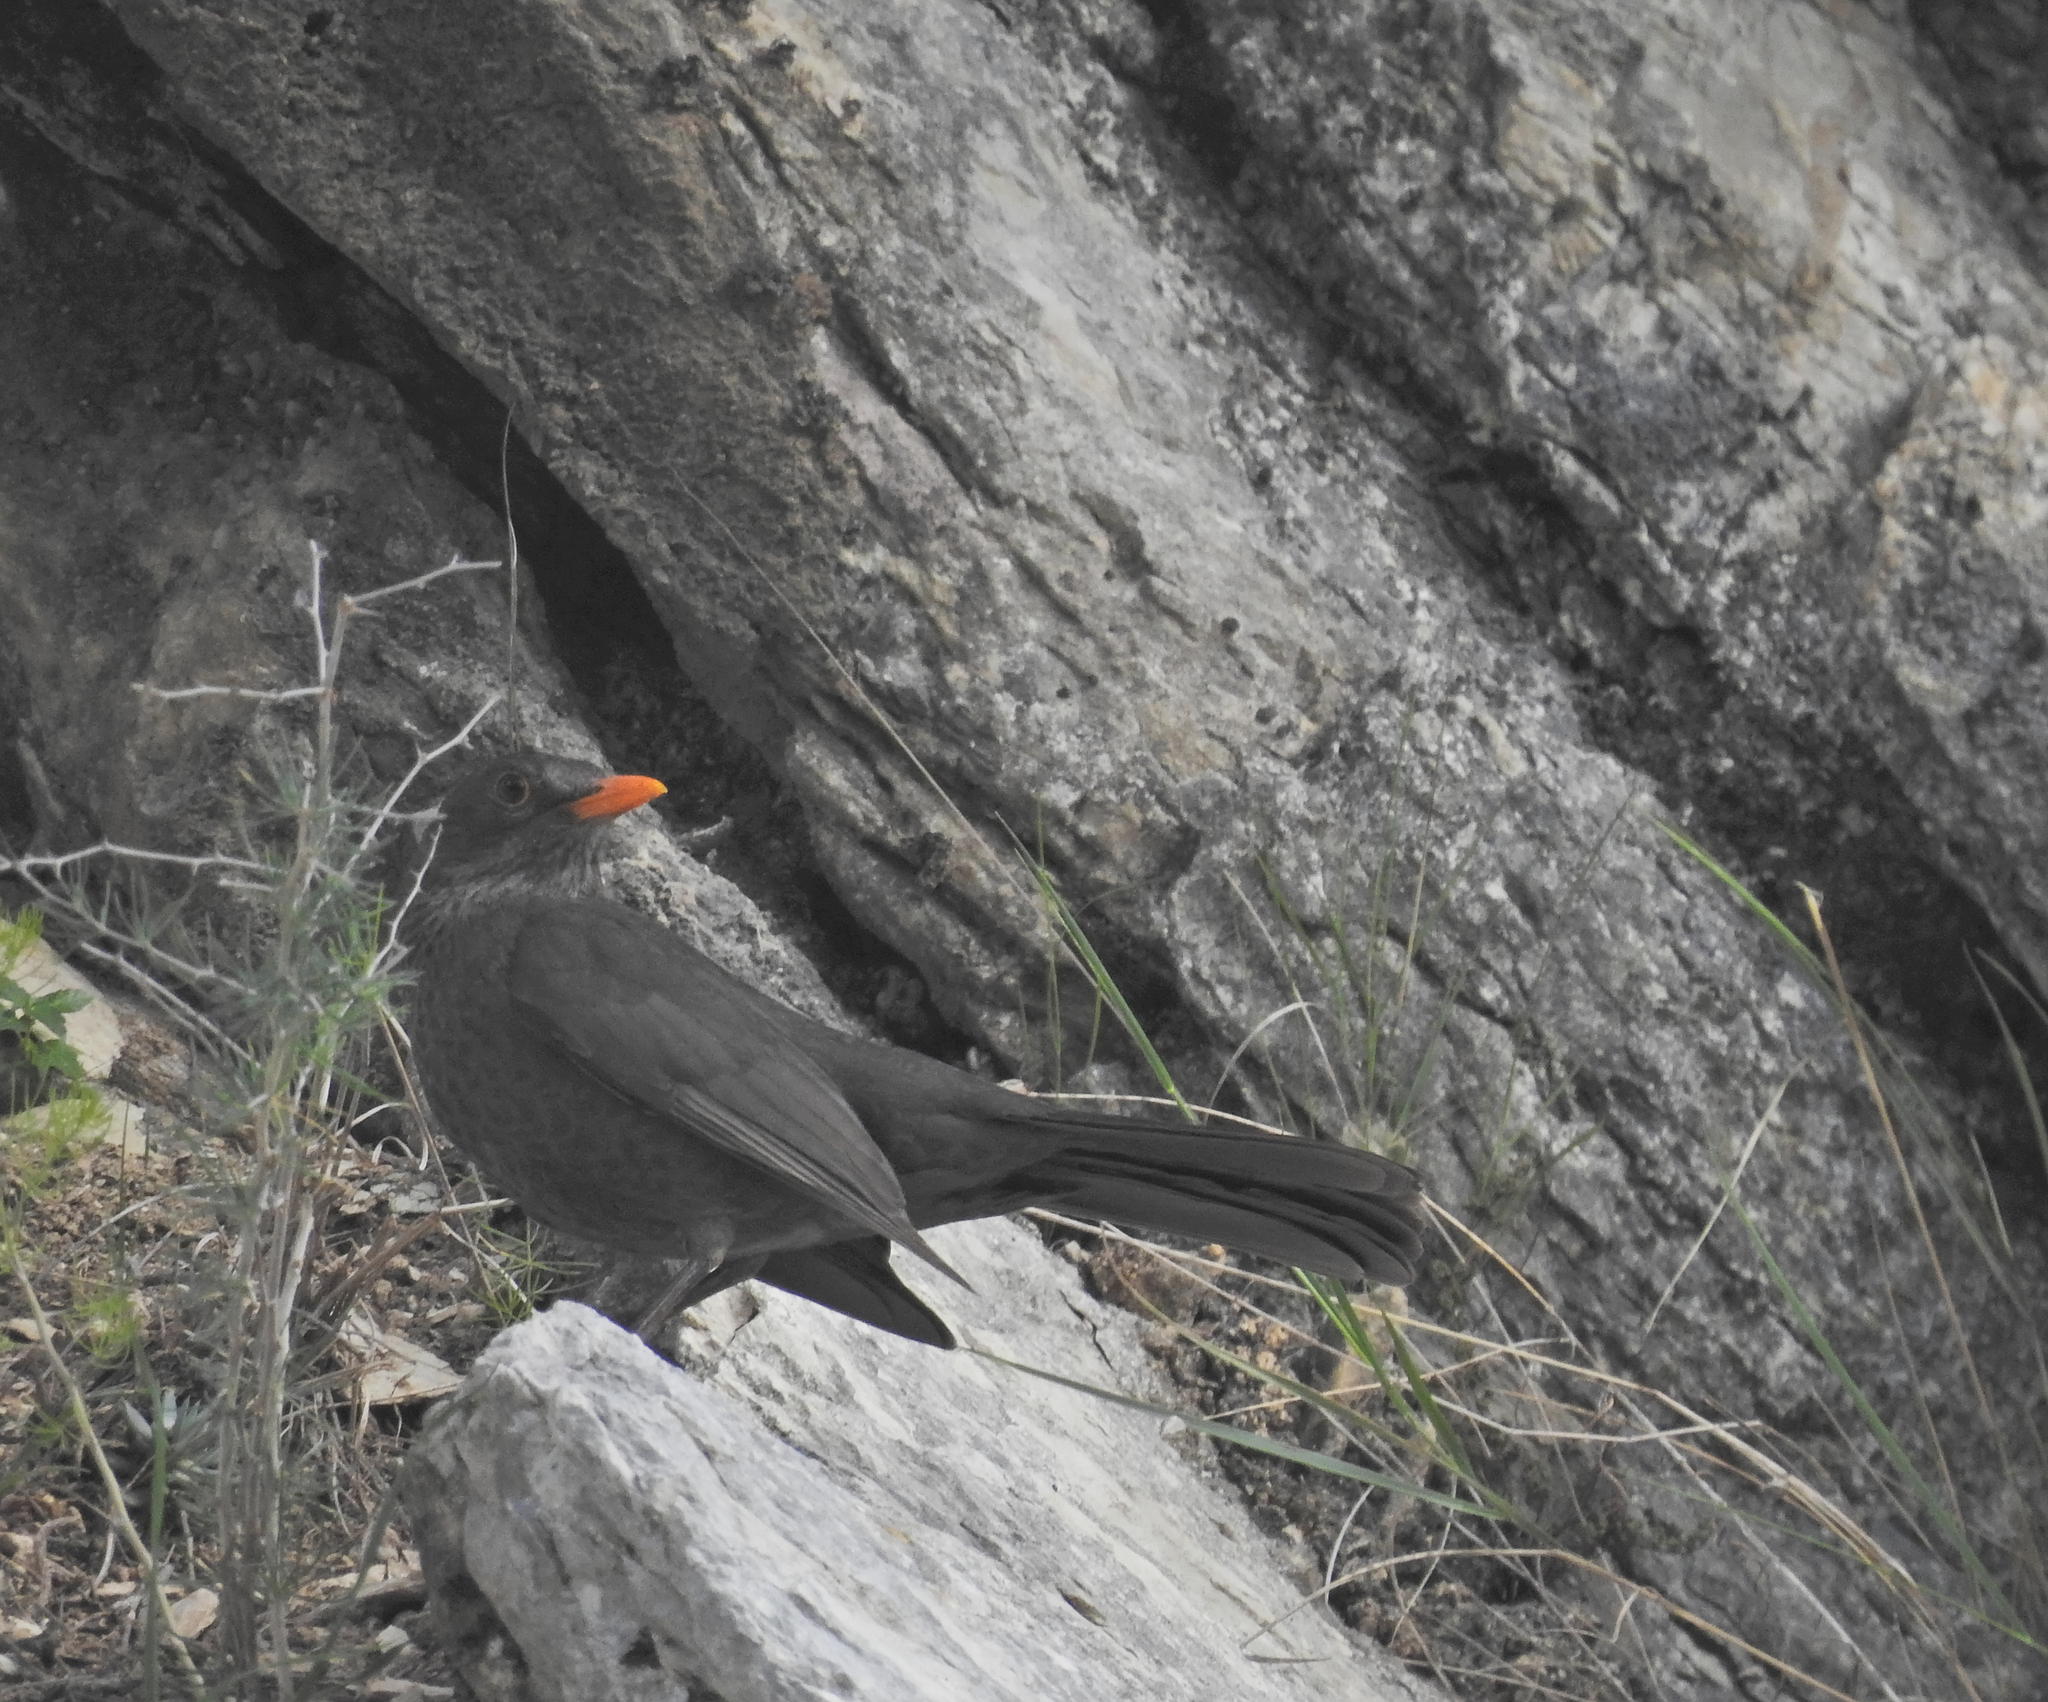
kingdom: Animalia
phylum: Chordata
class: Aves
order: Passeriformes
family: Turdidae
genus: Turdus
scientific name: Turdus merula
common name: Common blackbird
